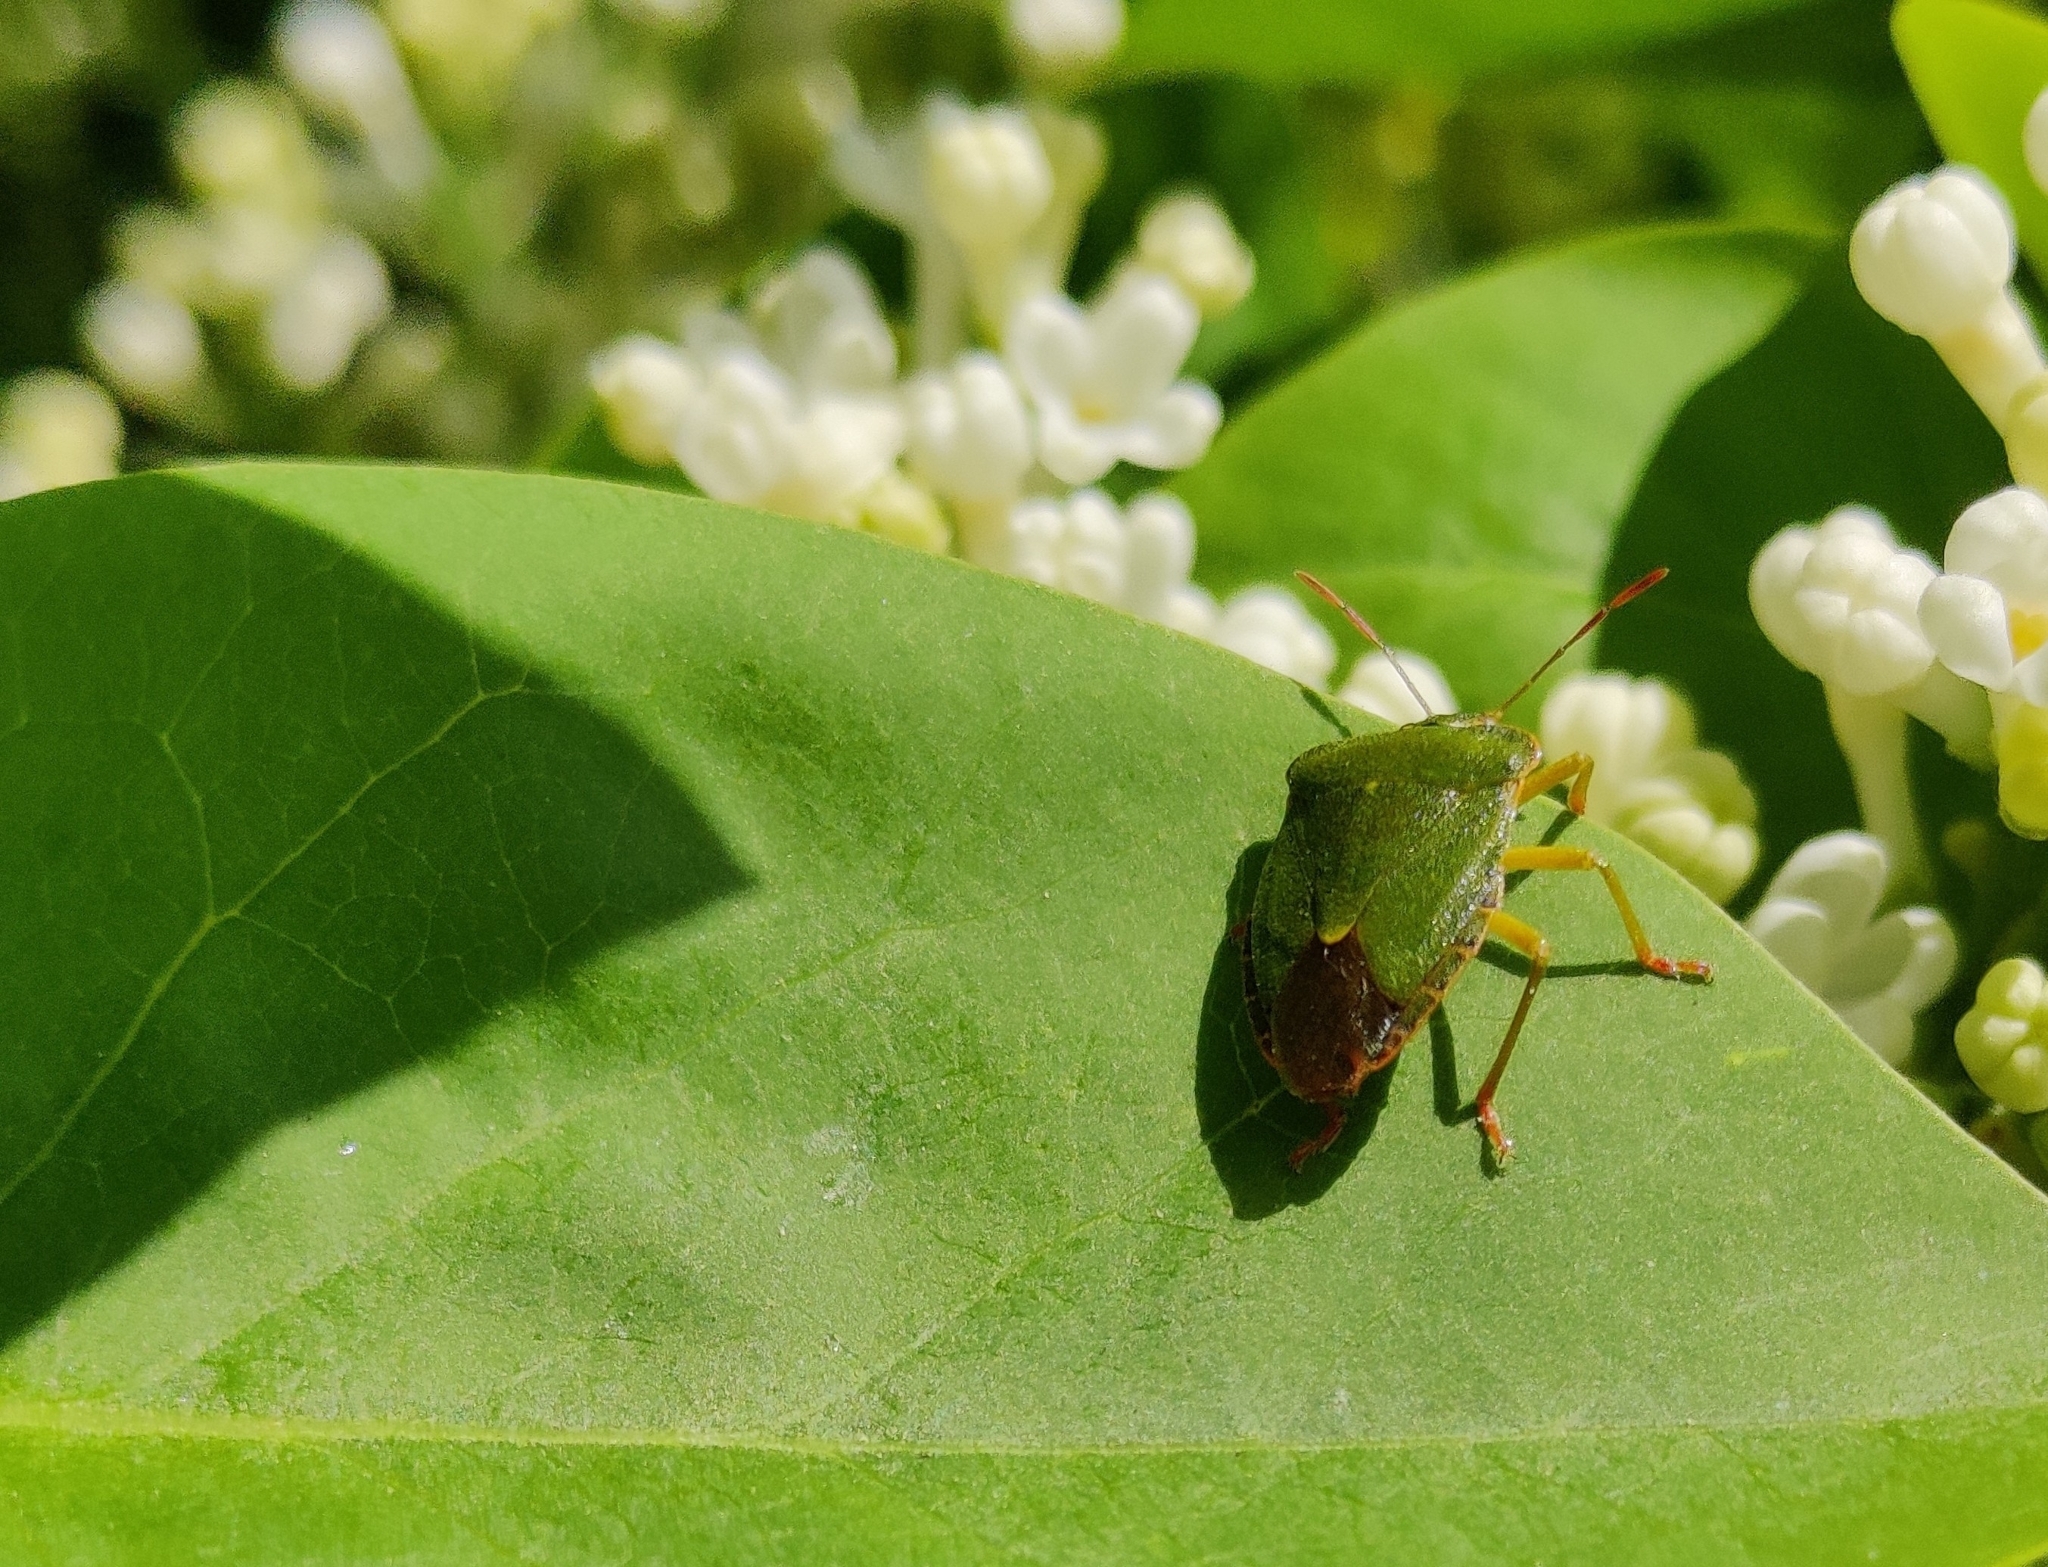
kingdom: Animalia
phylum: Arthropoda
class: Insecta
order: Hemiptera
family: Pentatomidae
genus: Palomena
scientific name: Palomena prasina
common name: Green shieldbug
